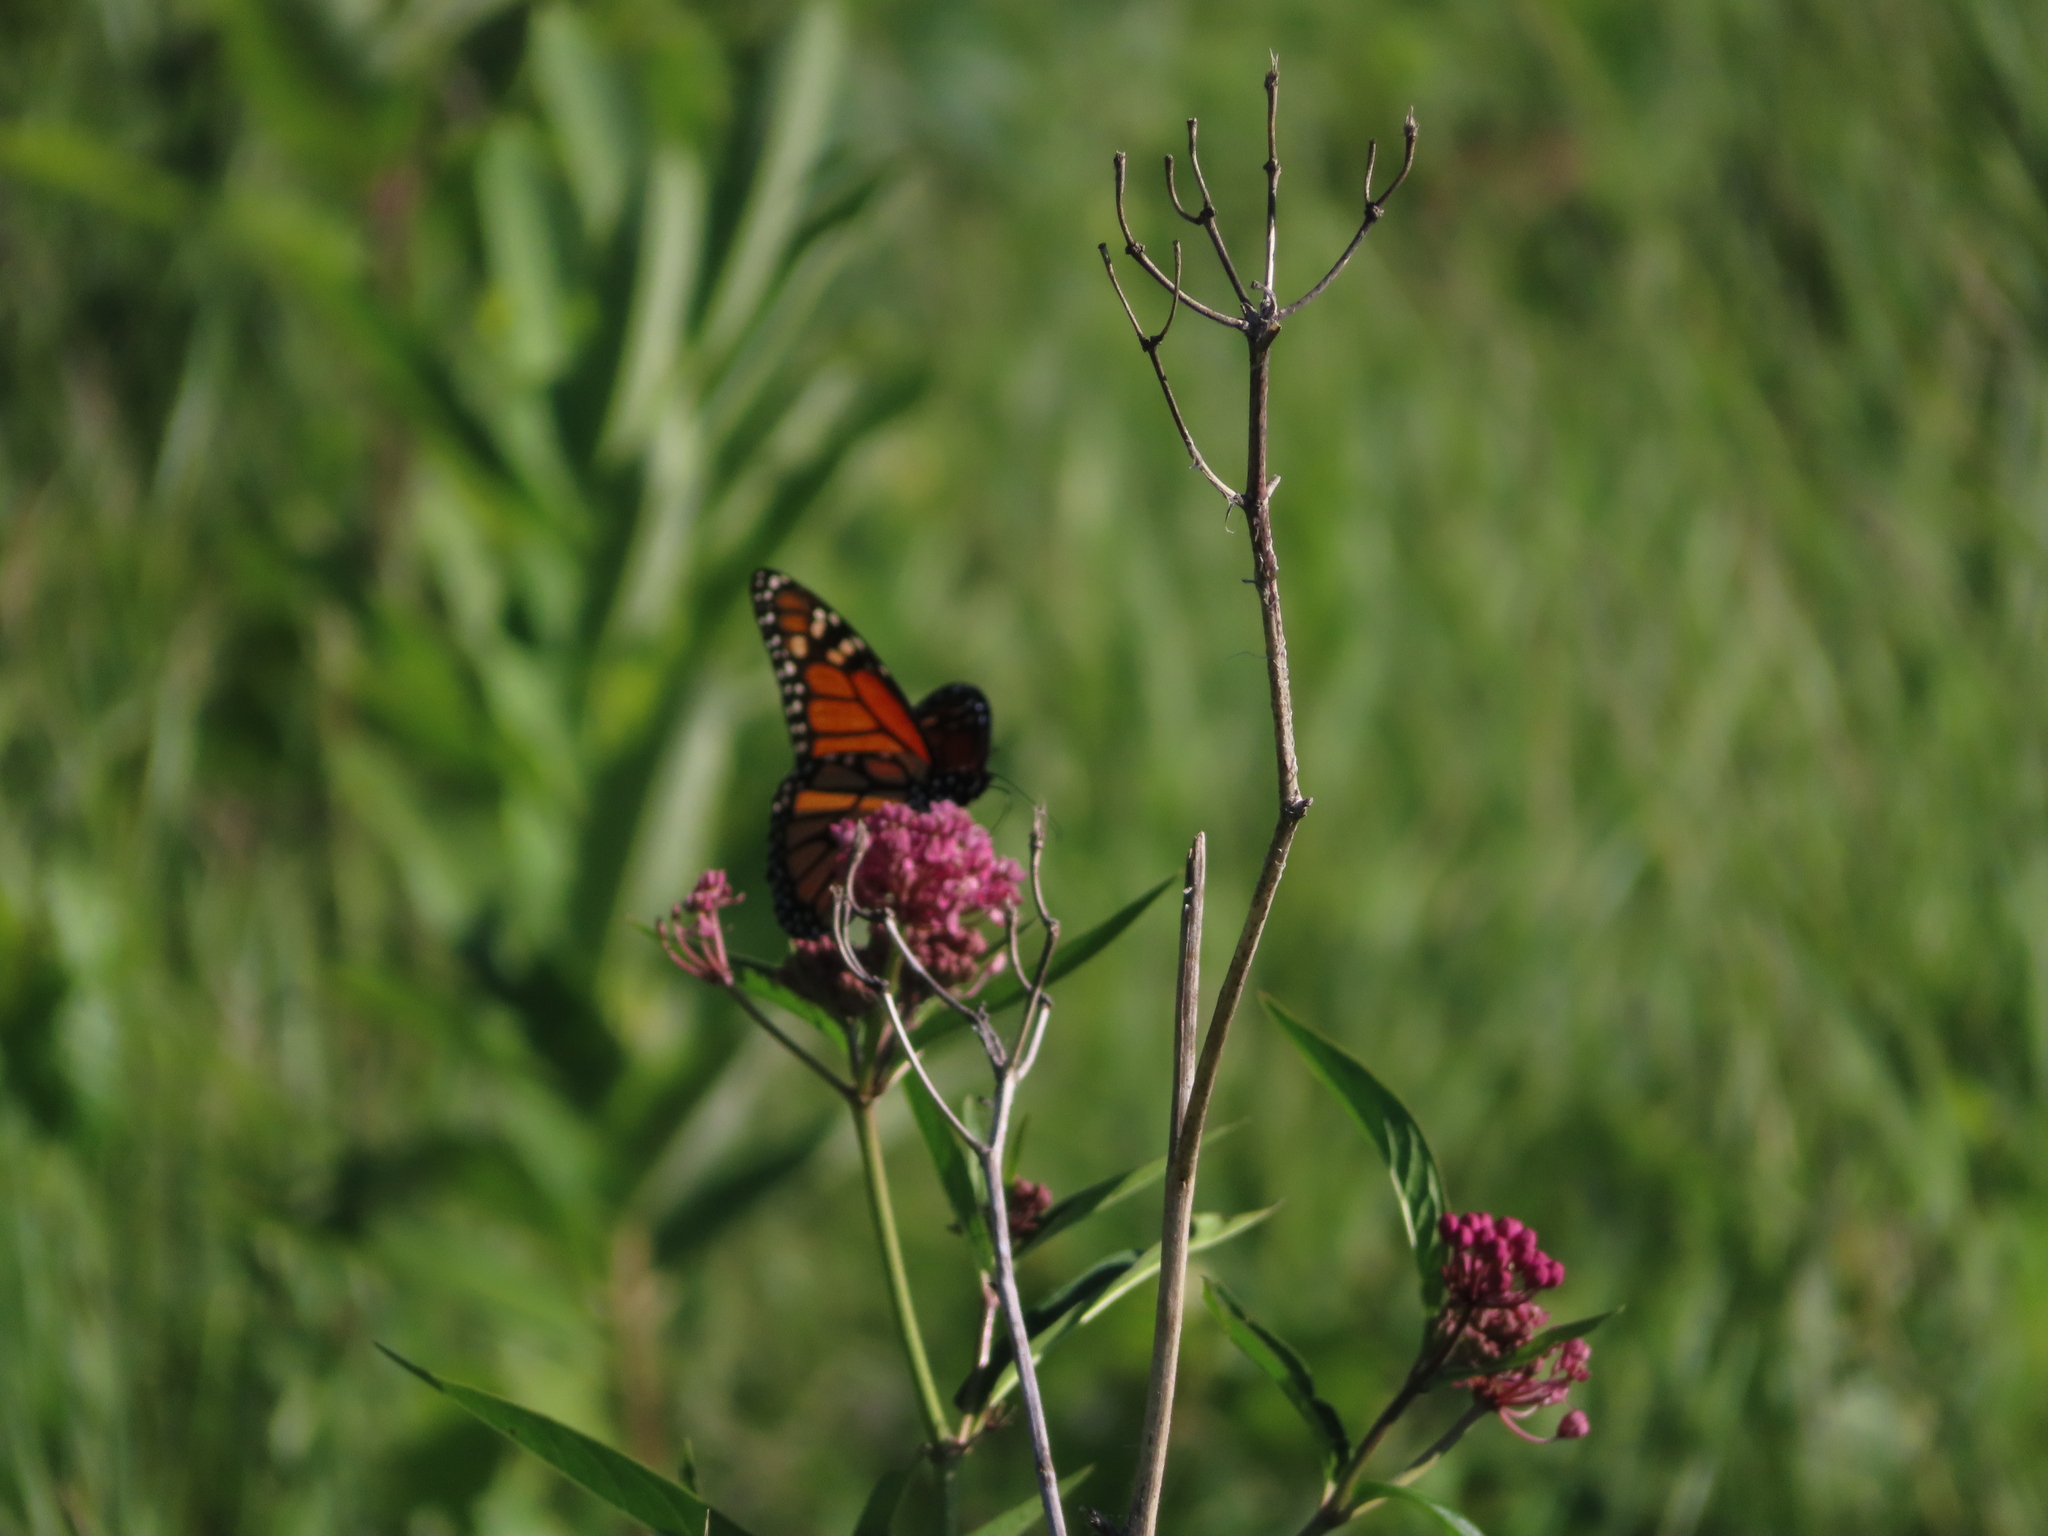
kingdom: Animalia
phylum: Arthropoda
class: Insecta
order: Lepidoptera
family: Nymphalidae
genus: Danaus
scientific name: Danaus plexippus
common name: Monarch
